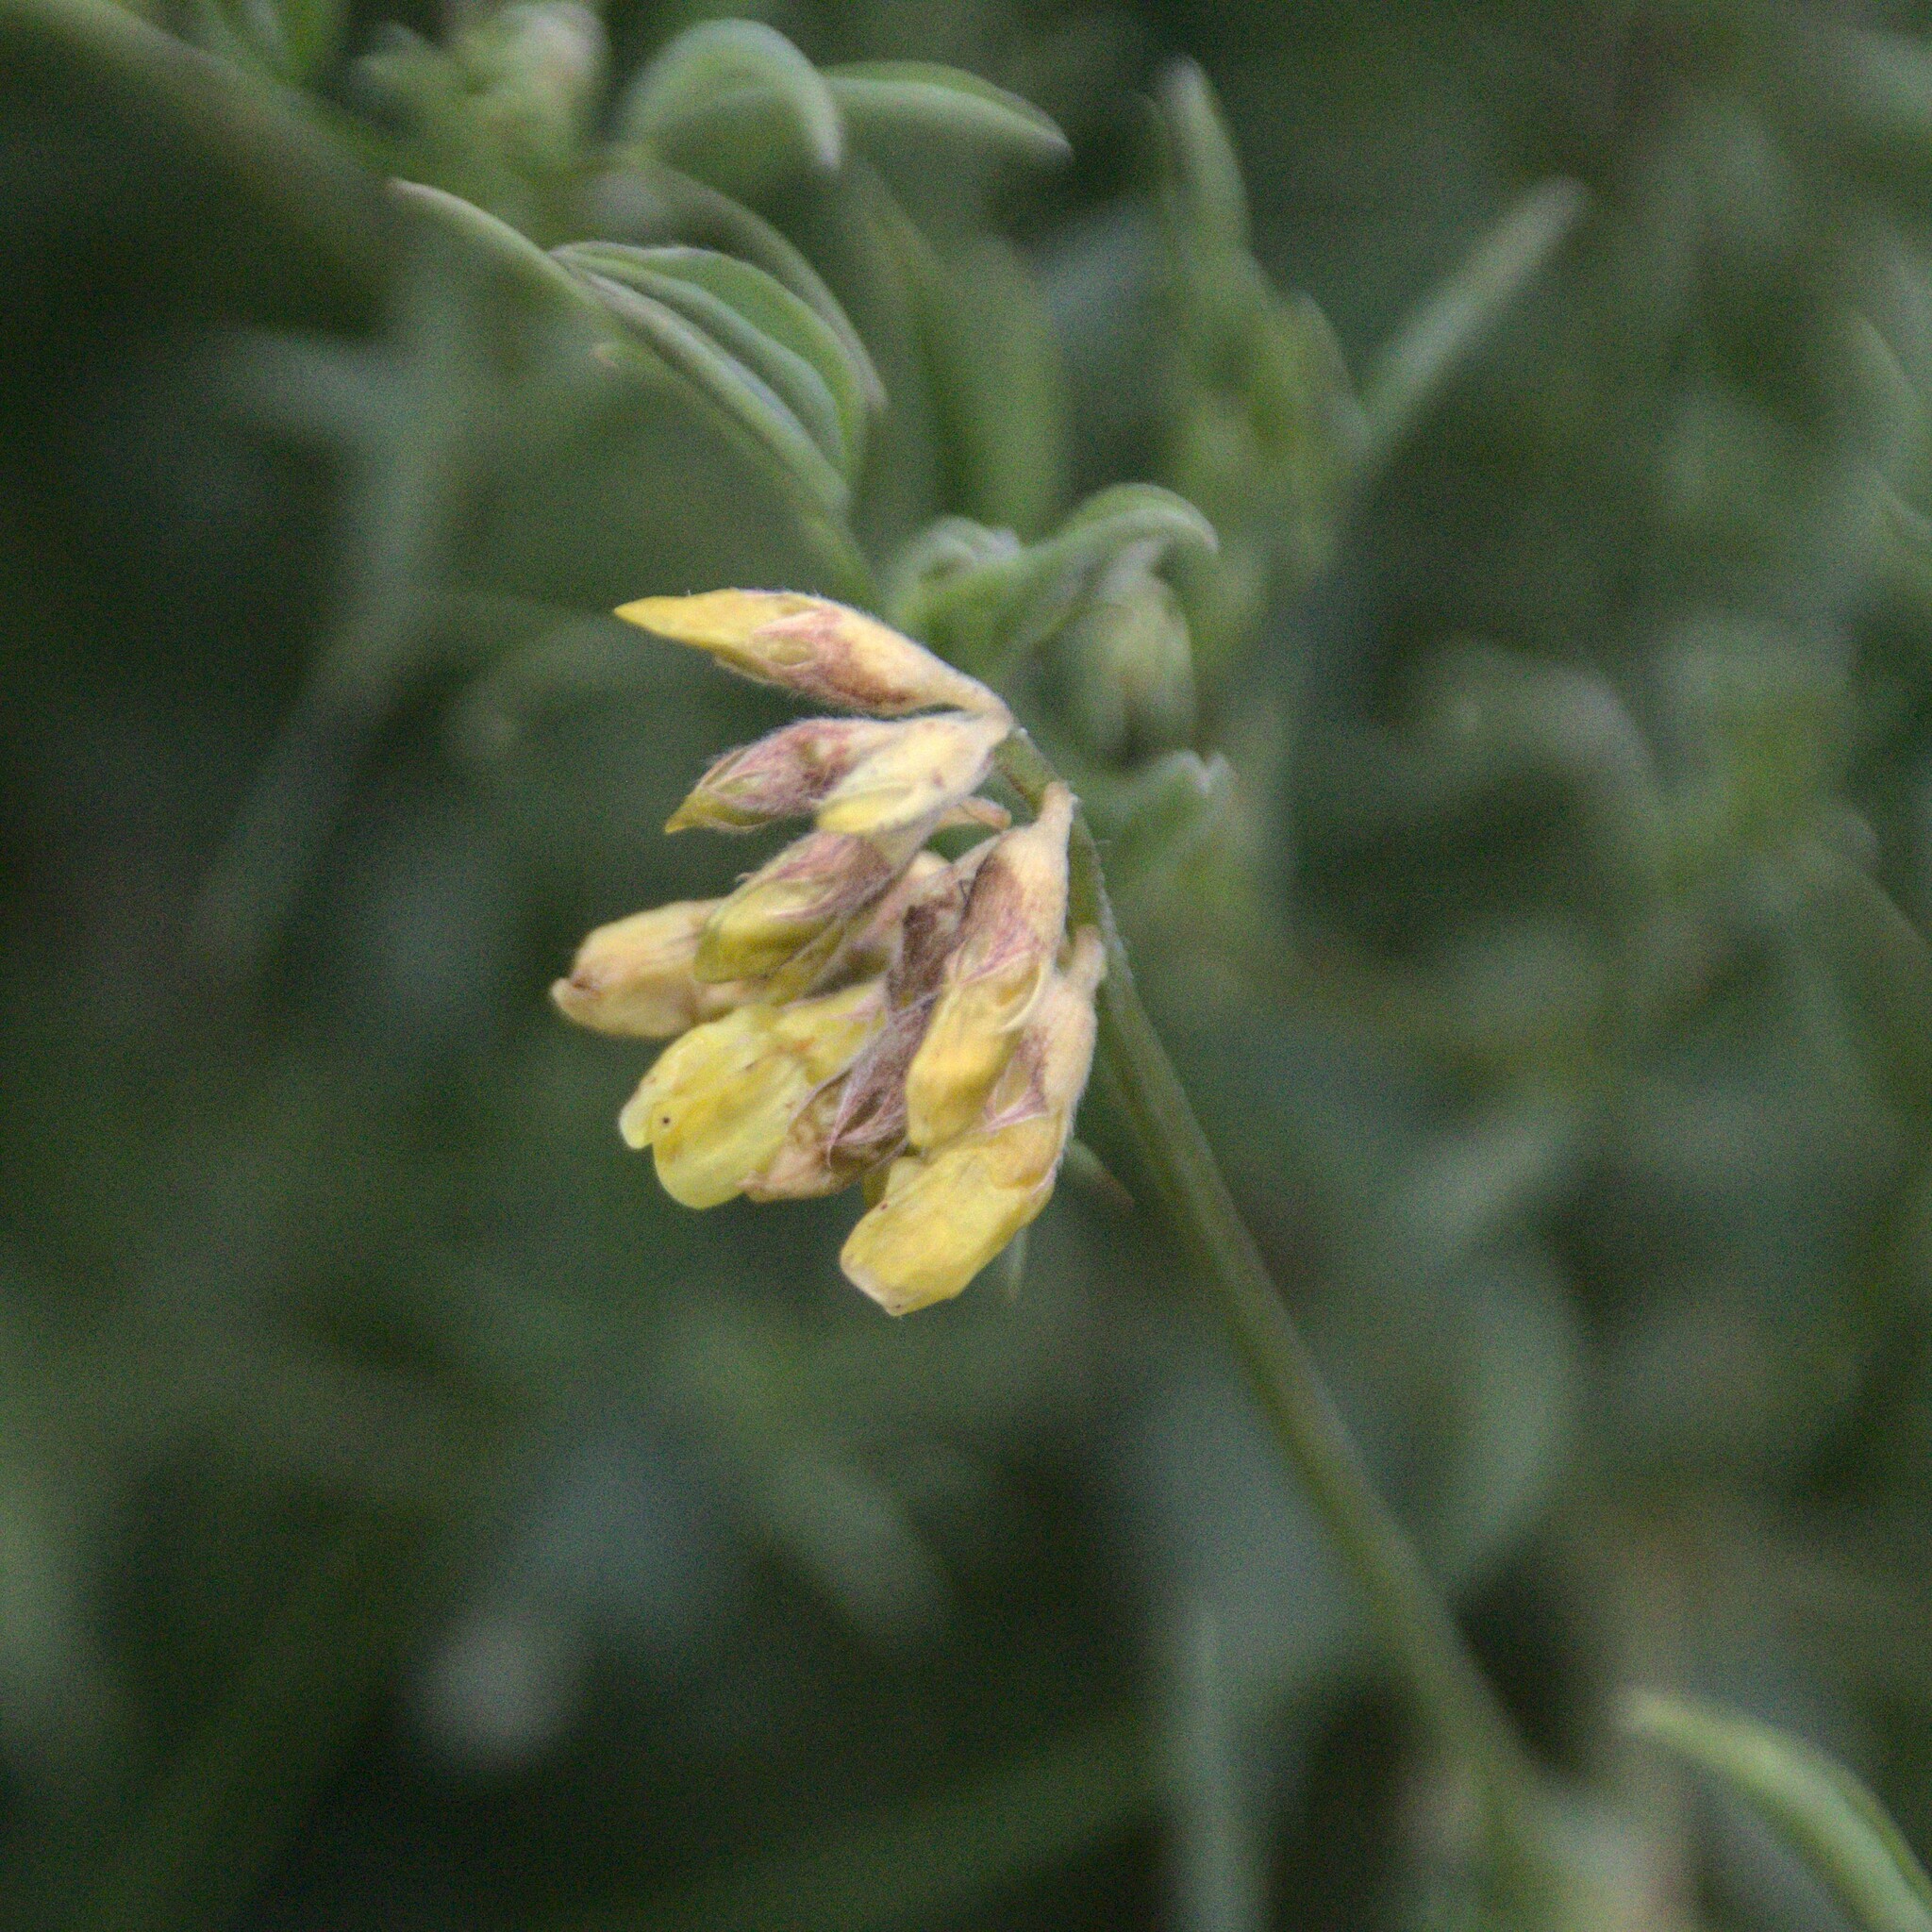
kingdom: Plantae
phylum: Tracheophyta
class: Magnoliopsida
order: Fabales
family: Fabaceae
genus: Lathyrus
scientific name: Lathyrus pratensis
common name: Meadow vetchling
